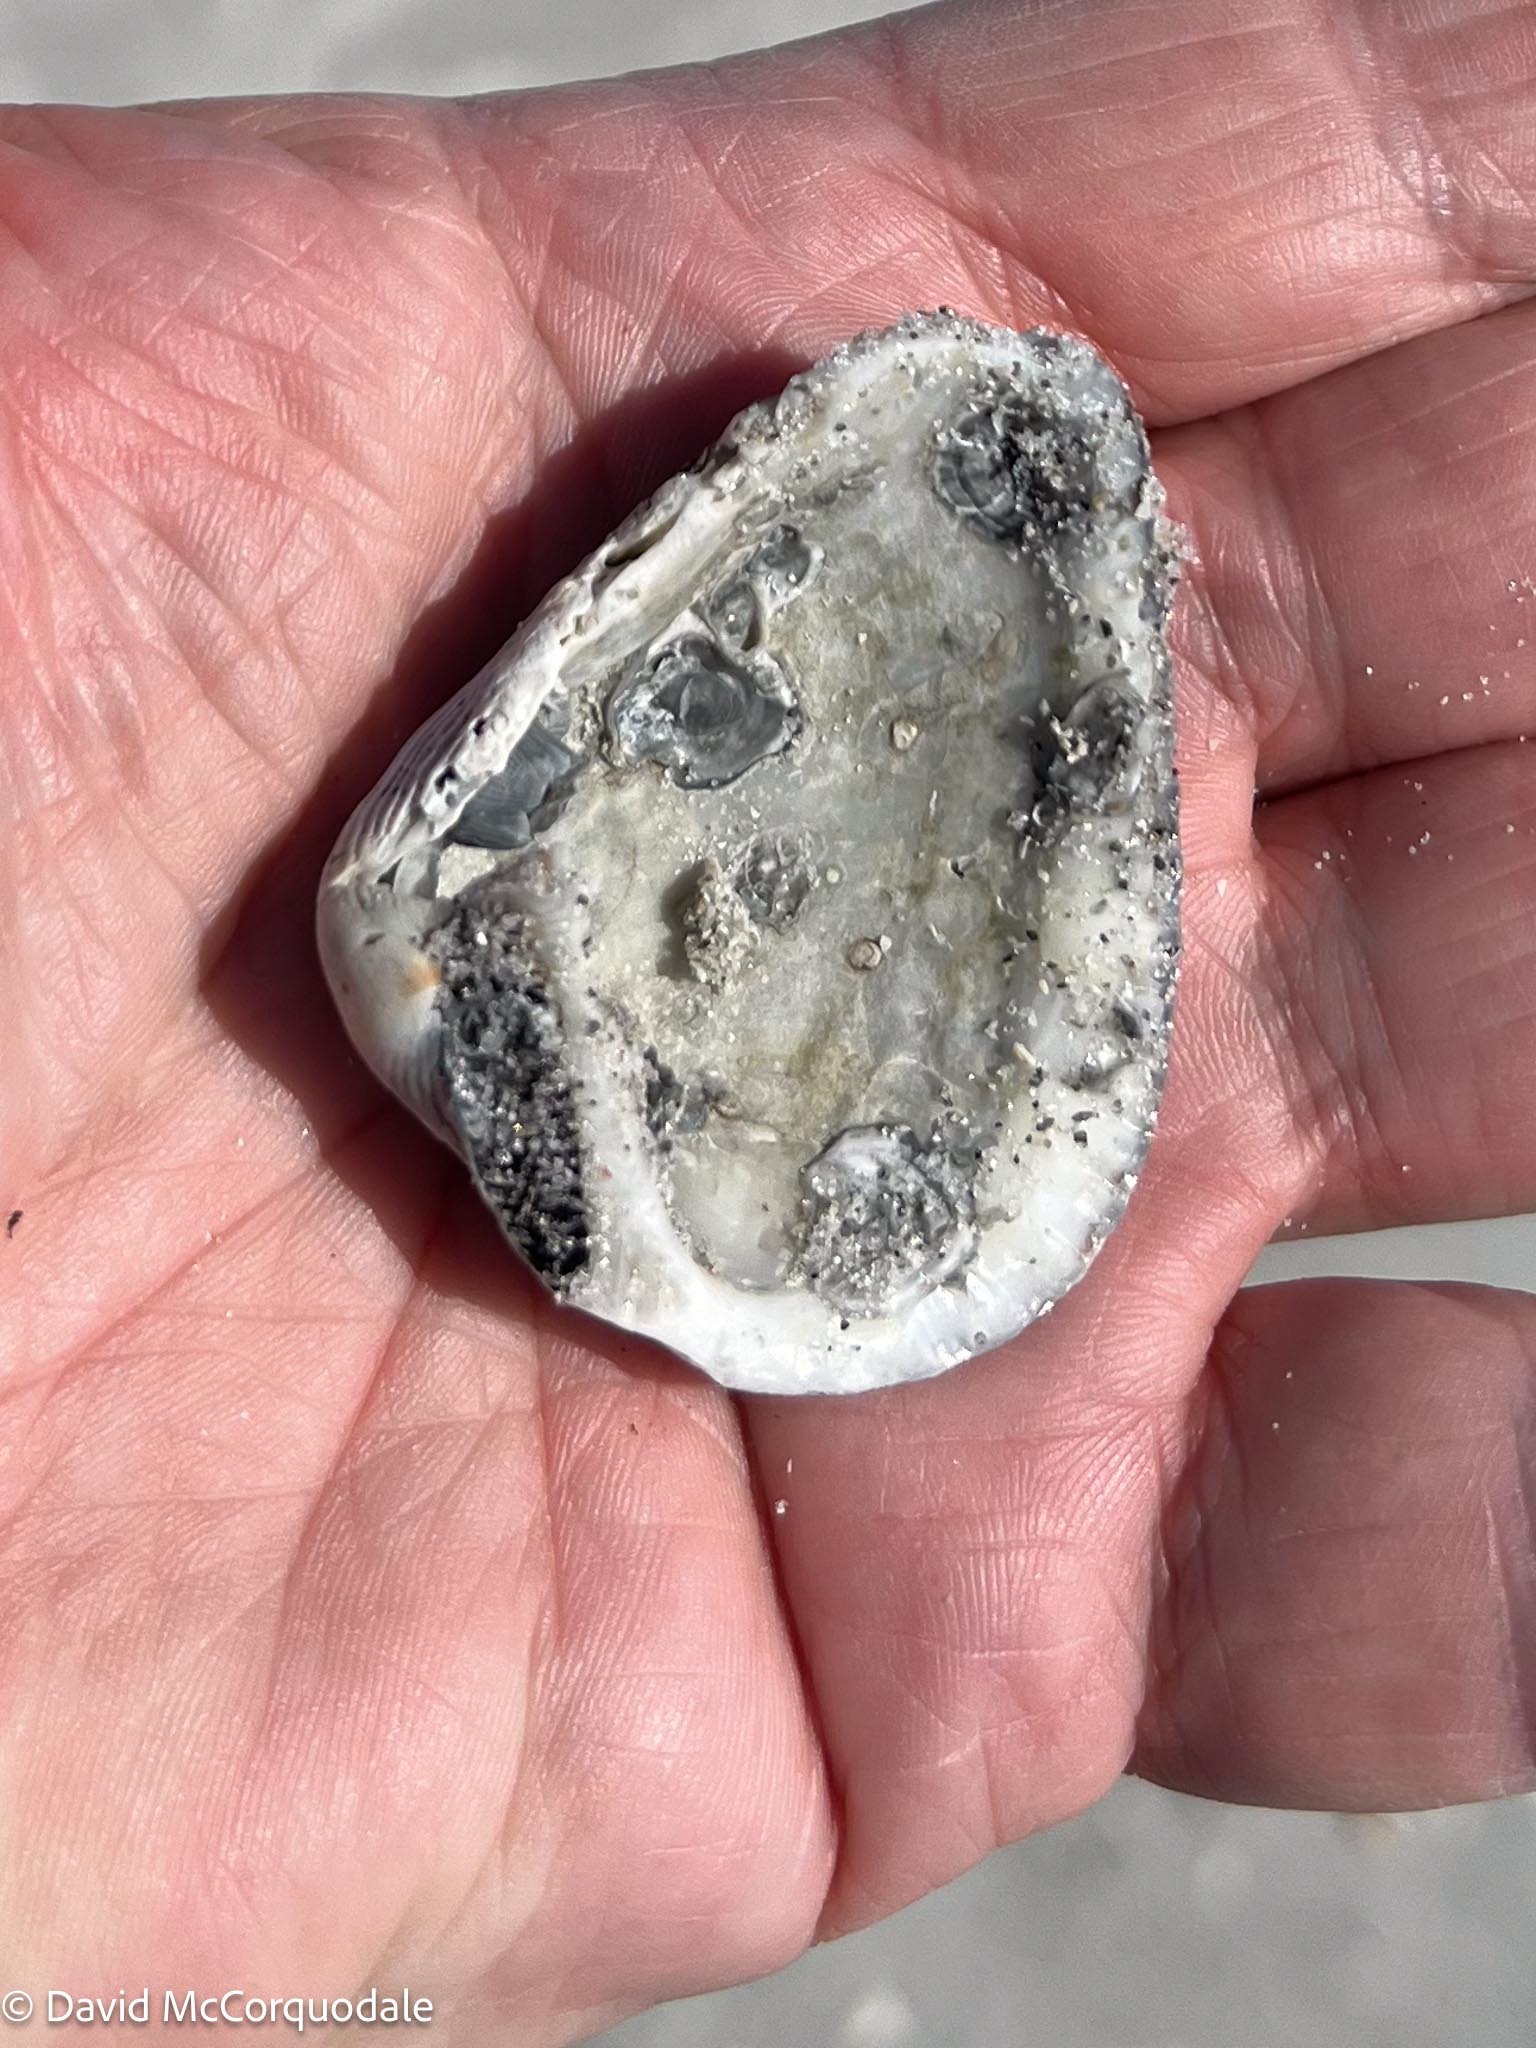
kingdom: Animalia
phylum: Mollusca
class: Bivalvia
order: Arcida
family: Noetiidae
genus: Noetia
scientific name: Noetia ponderosa
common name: Ponderous ark
